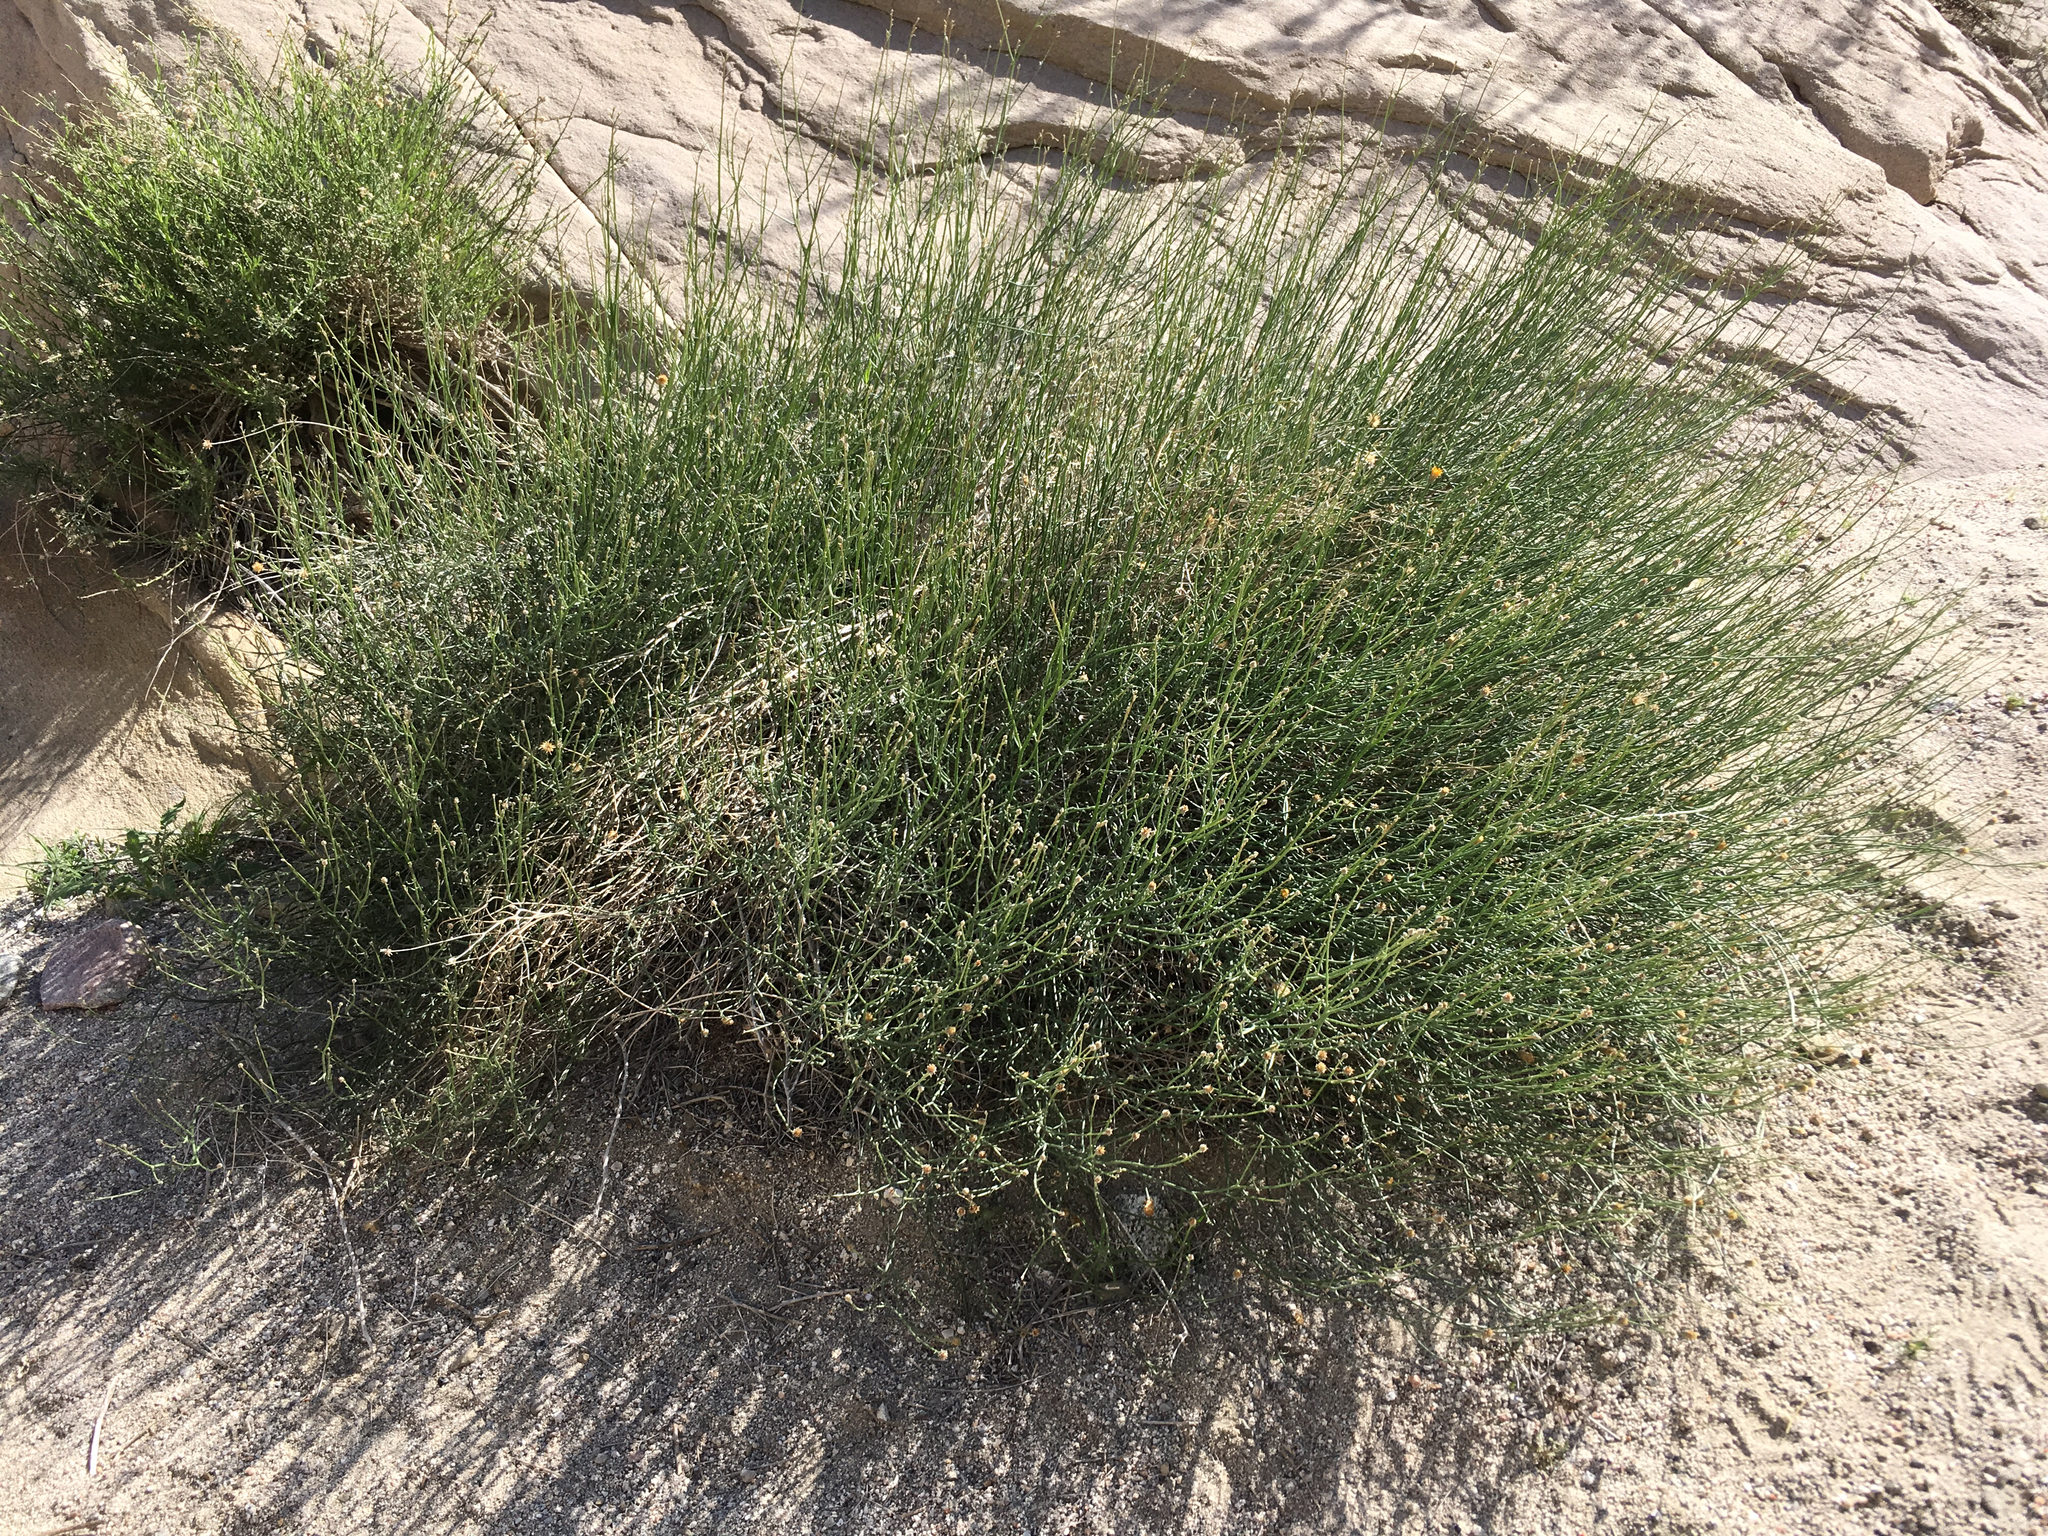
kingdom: Plantae
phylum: Tracheophyta
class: Magnoliopsida
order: Asterales
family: Asteraceae
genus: Bebbia
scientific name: Bebbia juncea
